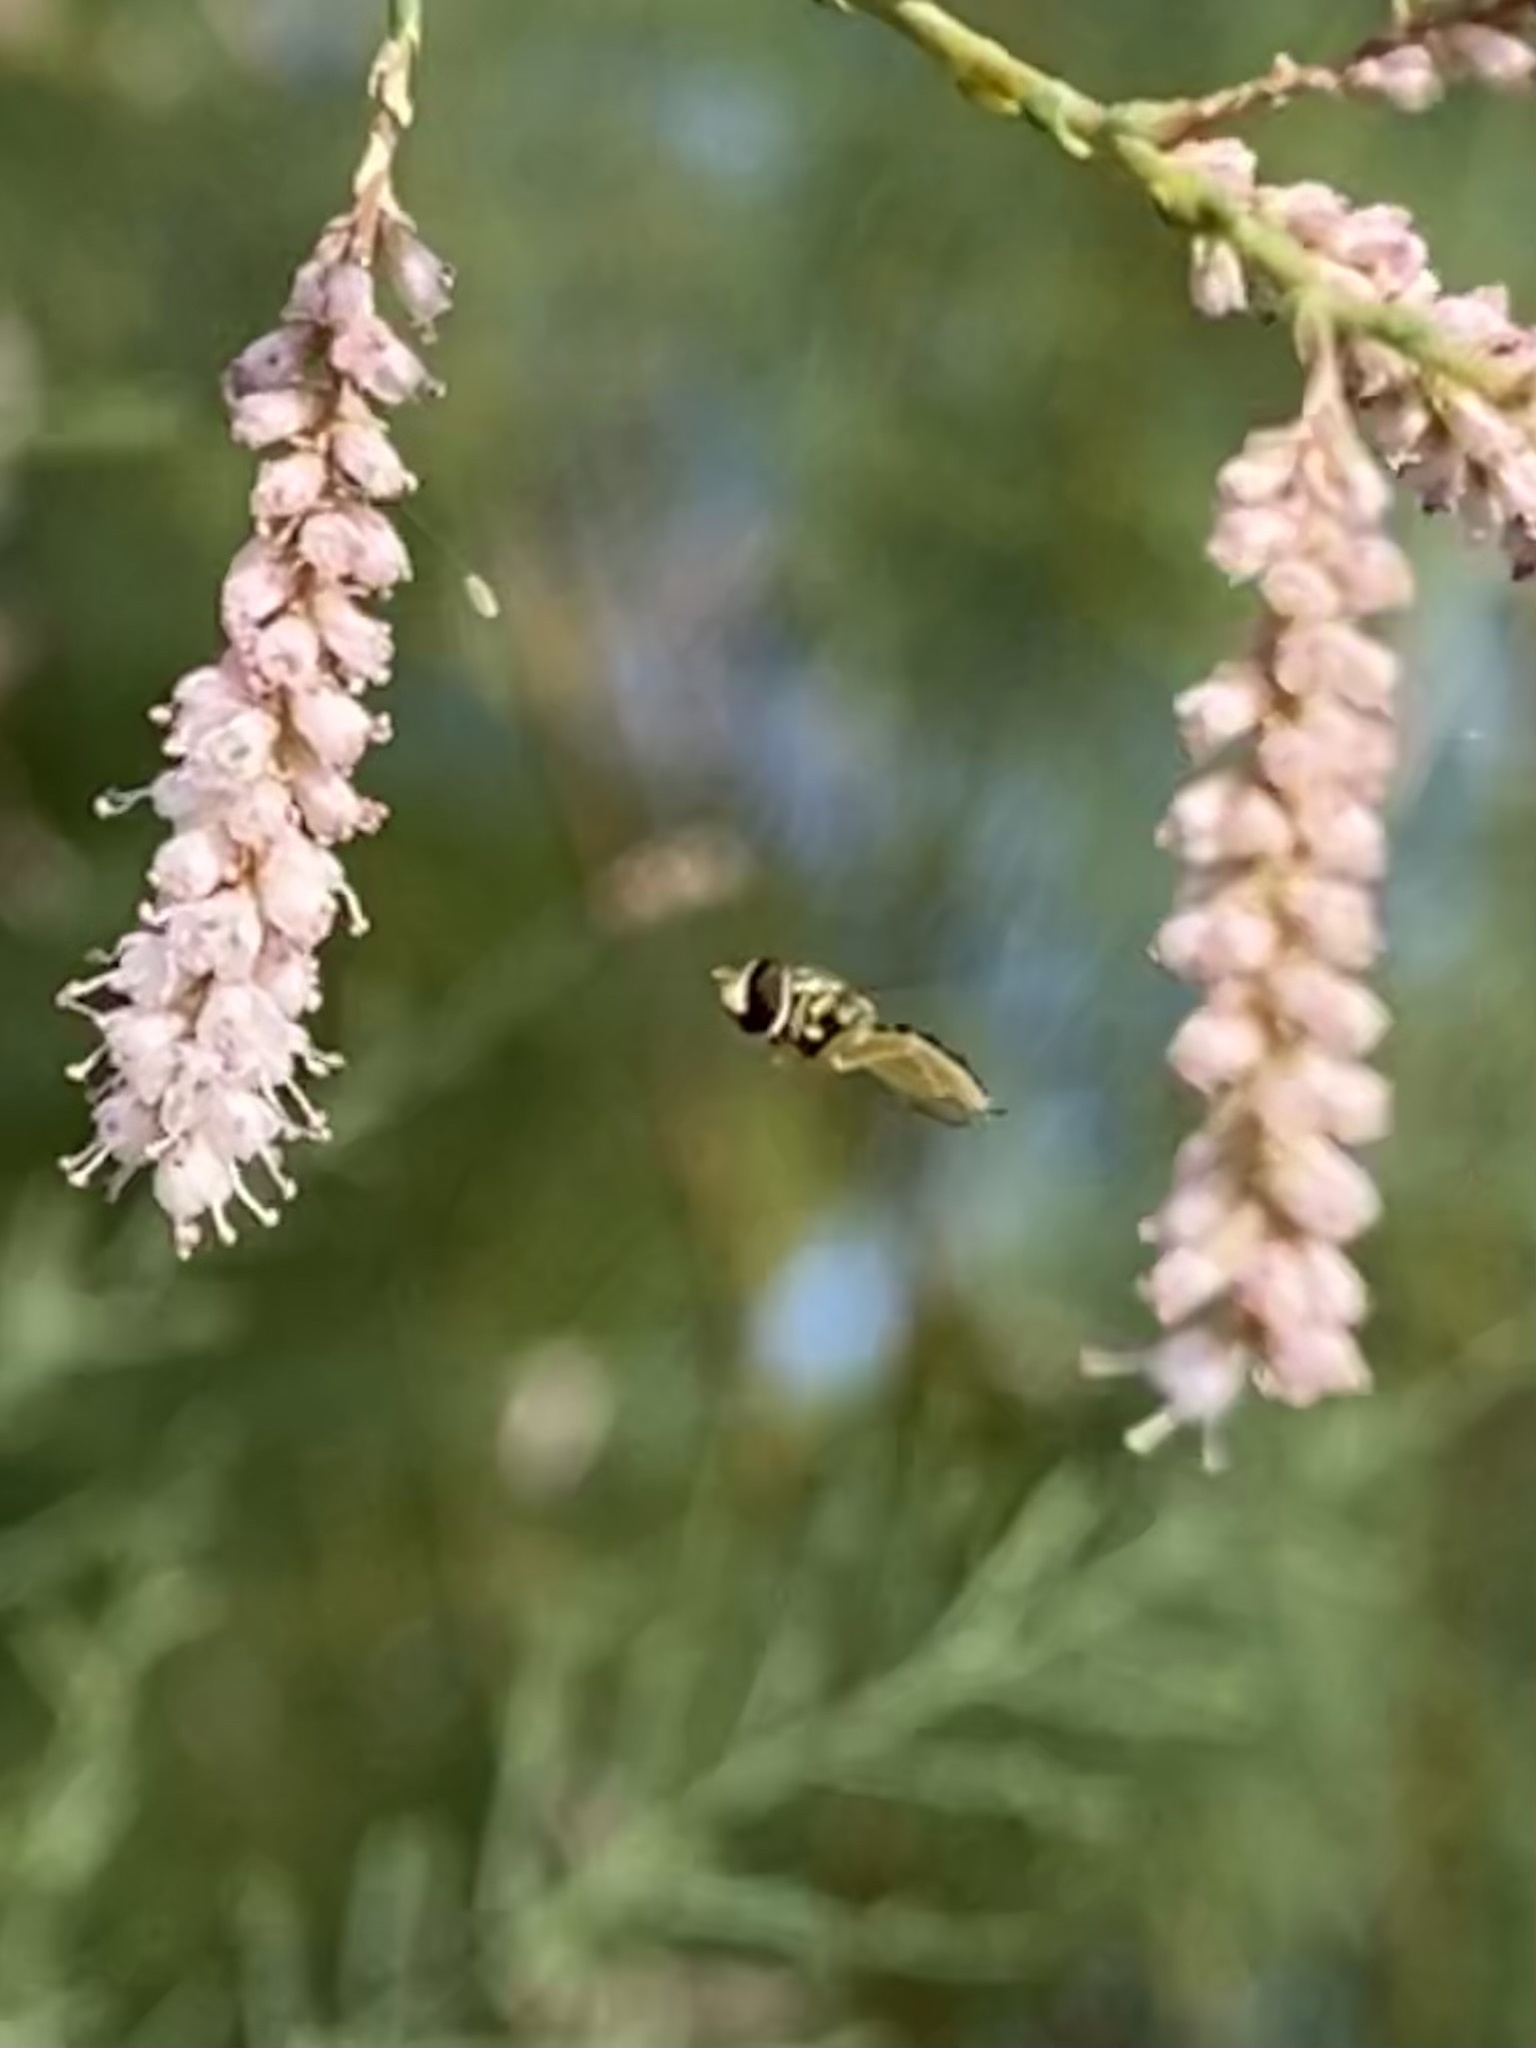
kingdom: Animalia
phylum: Arthropoda
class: Insecta
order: Diptera
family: Syrphidae
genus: Toxomerus
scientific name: Toxomerus
